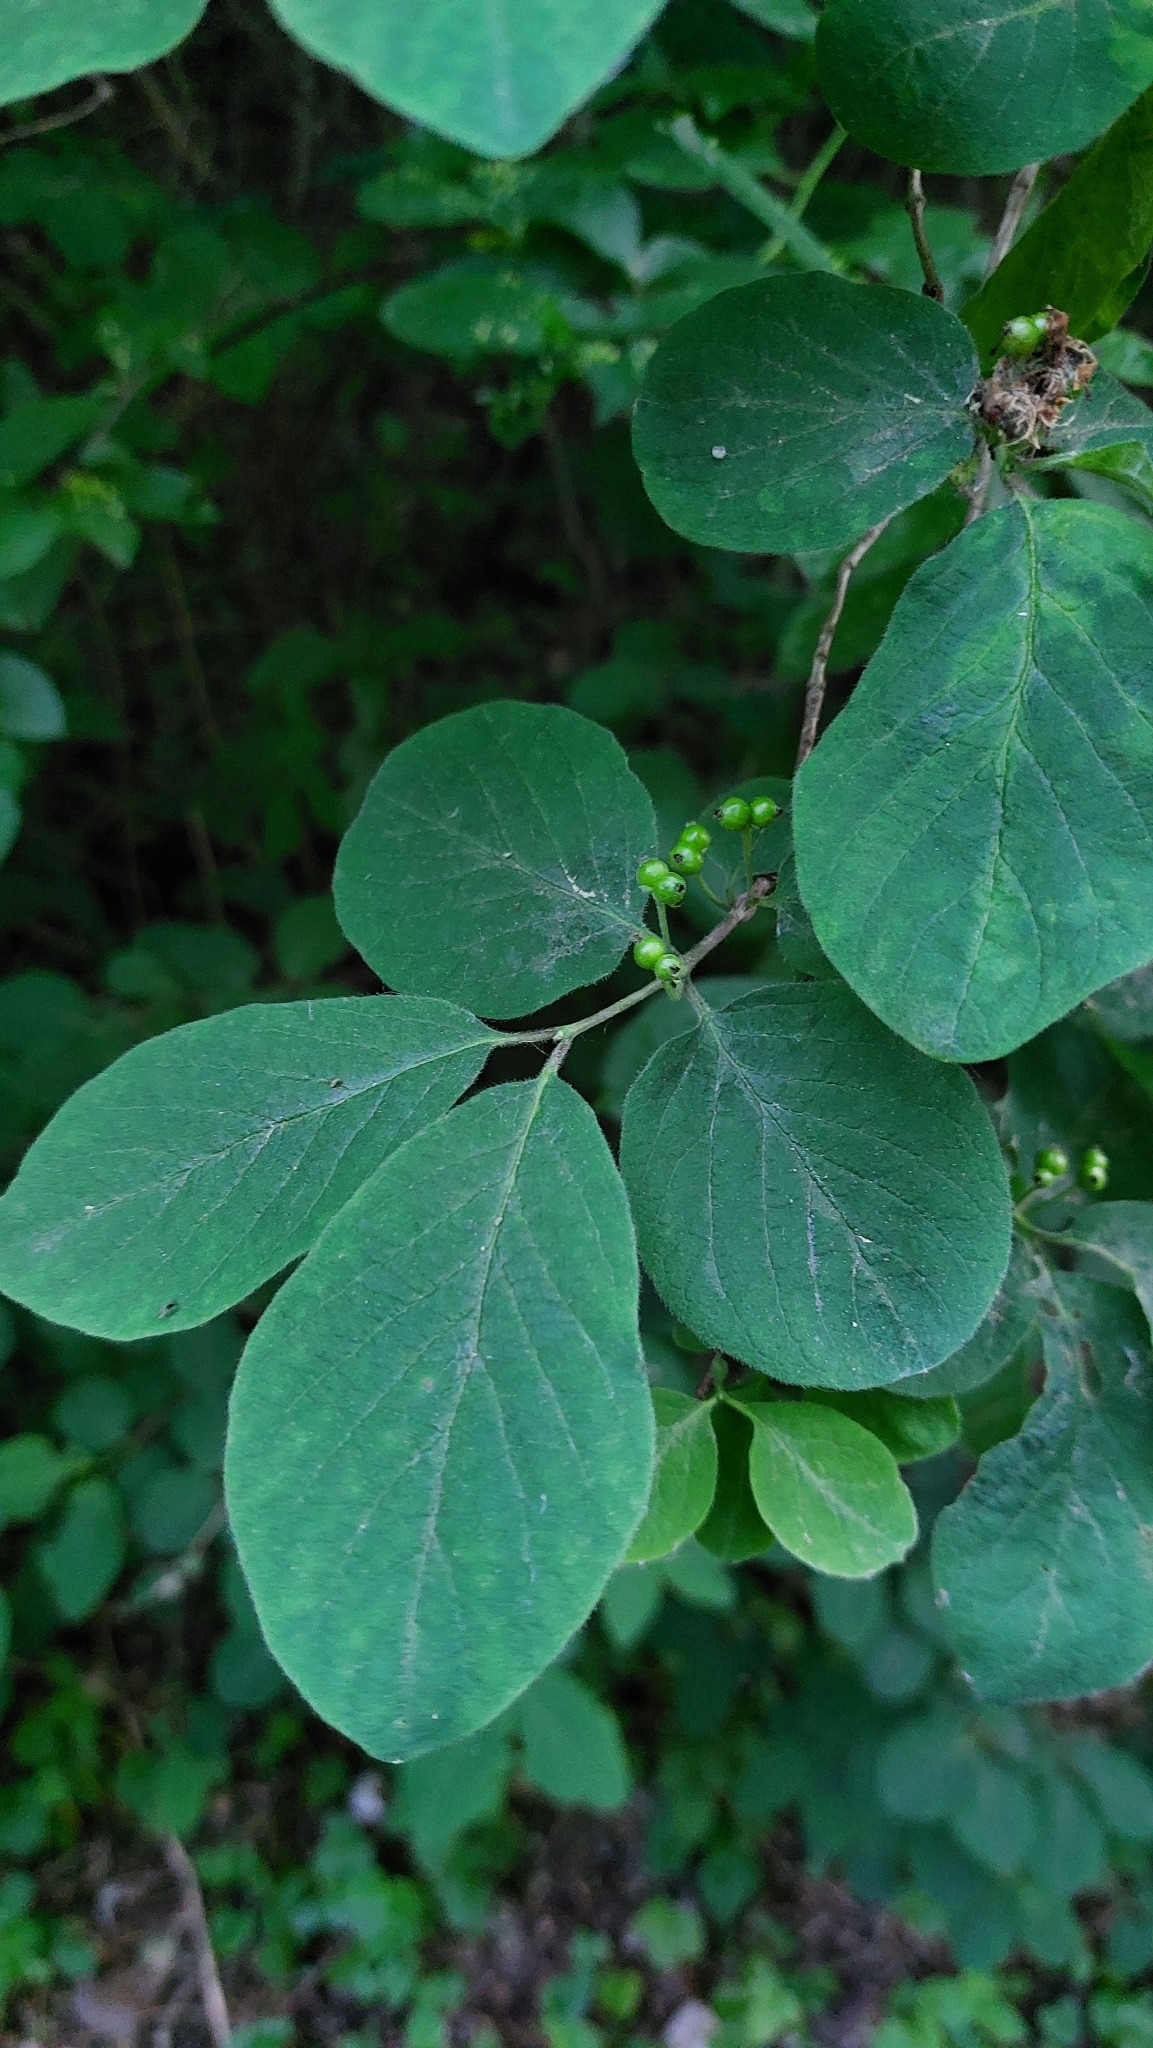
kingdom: Plantae
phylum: Tracheophyta
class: Magnoliopsida
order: Dipsacales
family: Caprifoliaceae
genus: Lonicera
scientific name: Lonicera xylosteum
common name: Fly honeysuckle
